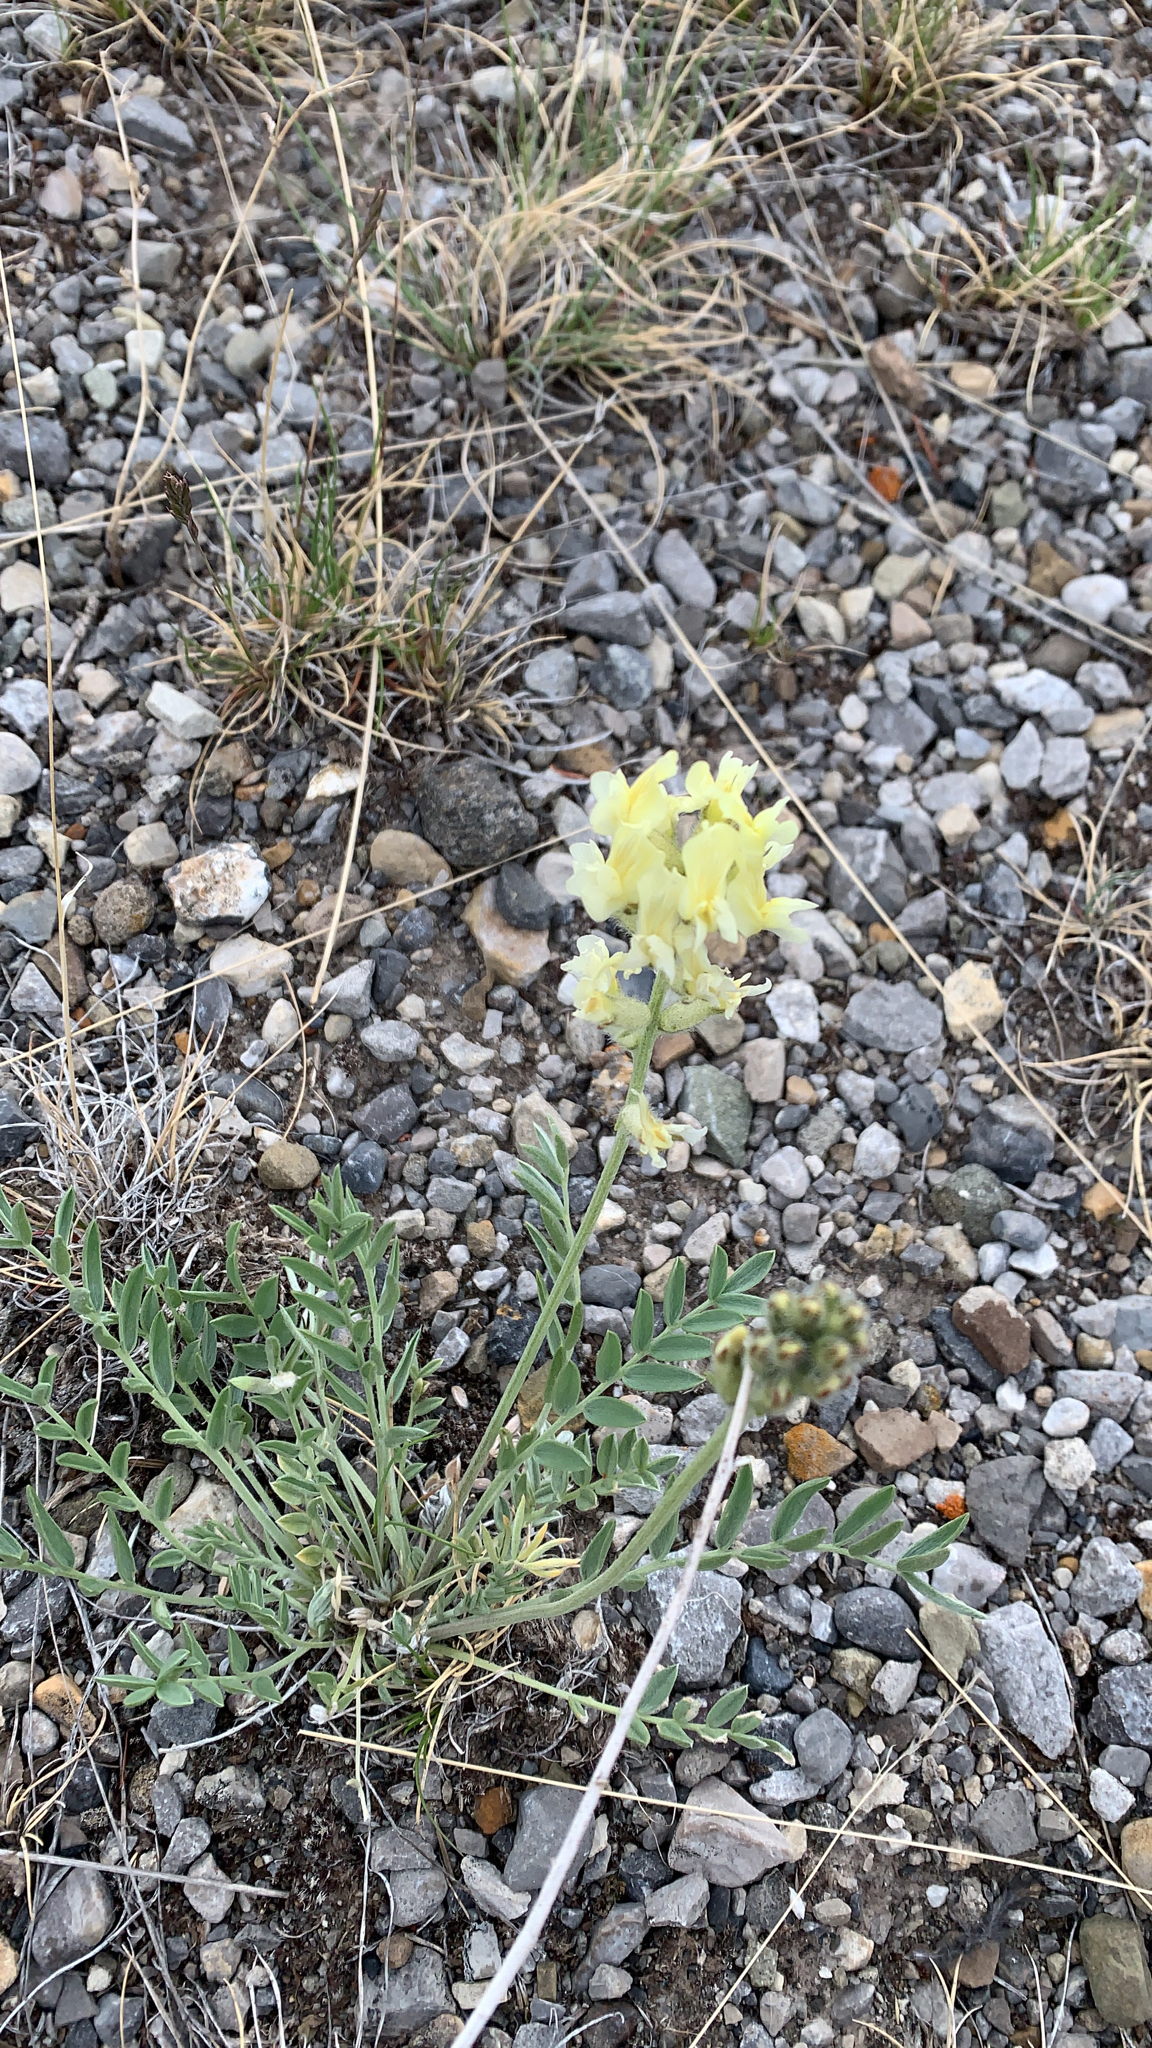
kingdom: Plantae
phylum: Tracheophyta
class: Magnoliopsida
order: Fabales
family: Fabaceae
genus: Oxytropis
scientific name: Oxytropis sericea
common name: Silky locoweed
